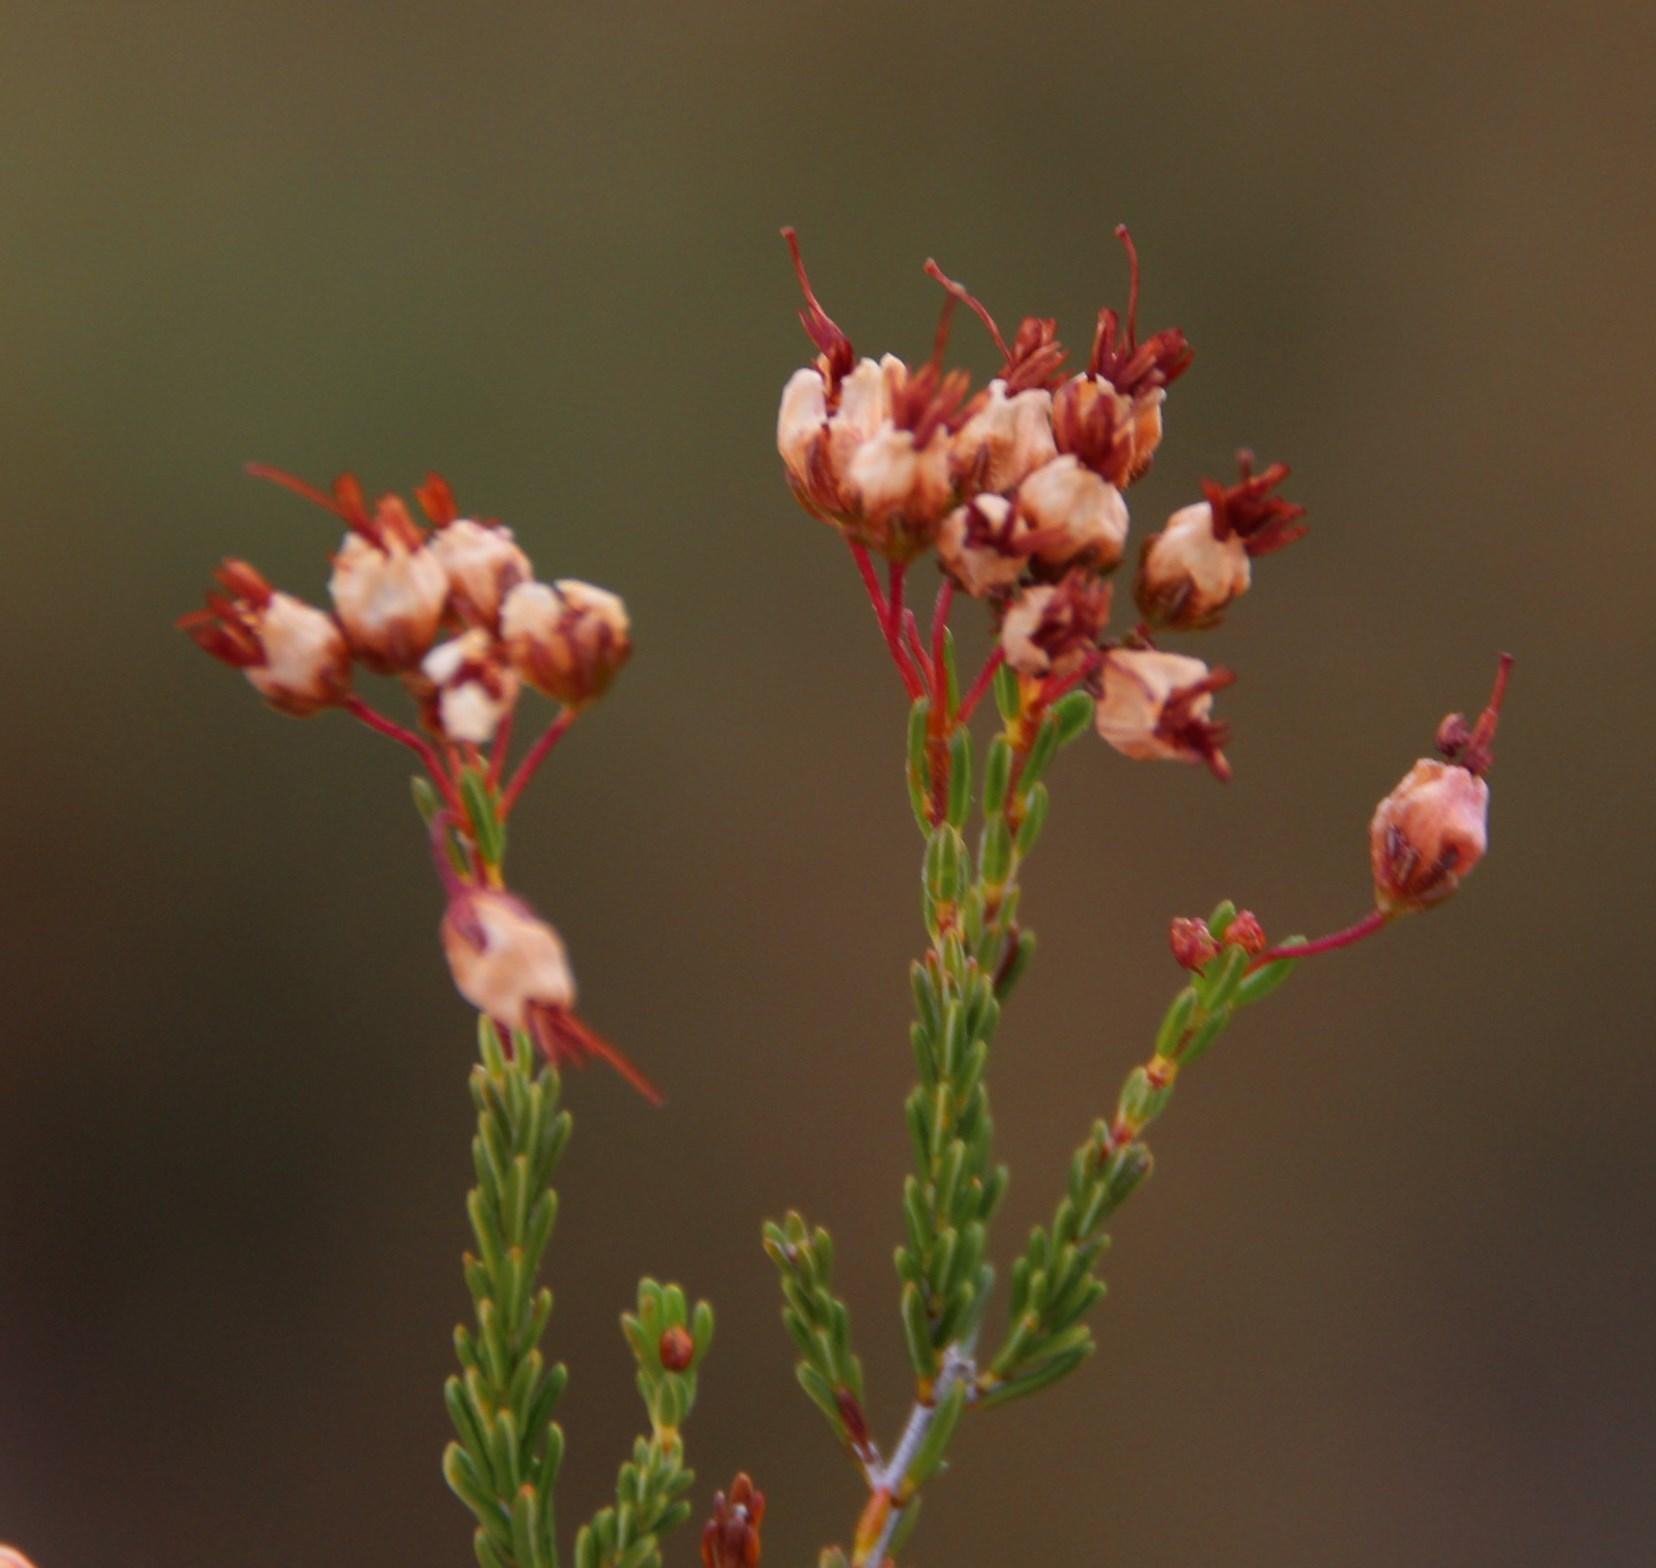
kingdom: Plantae
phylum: Tracheophyta
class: Magnoliopsida
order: Ericales
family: Ericaceae
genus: Erica
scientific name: Erica umbellata
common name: Dwarf spanish heath
